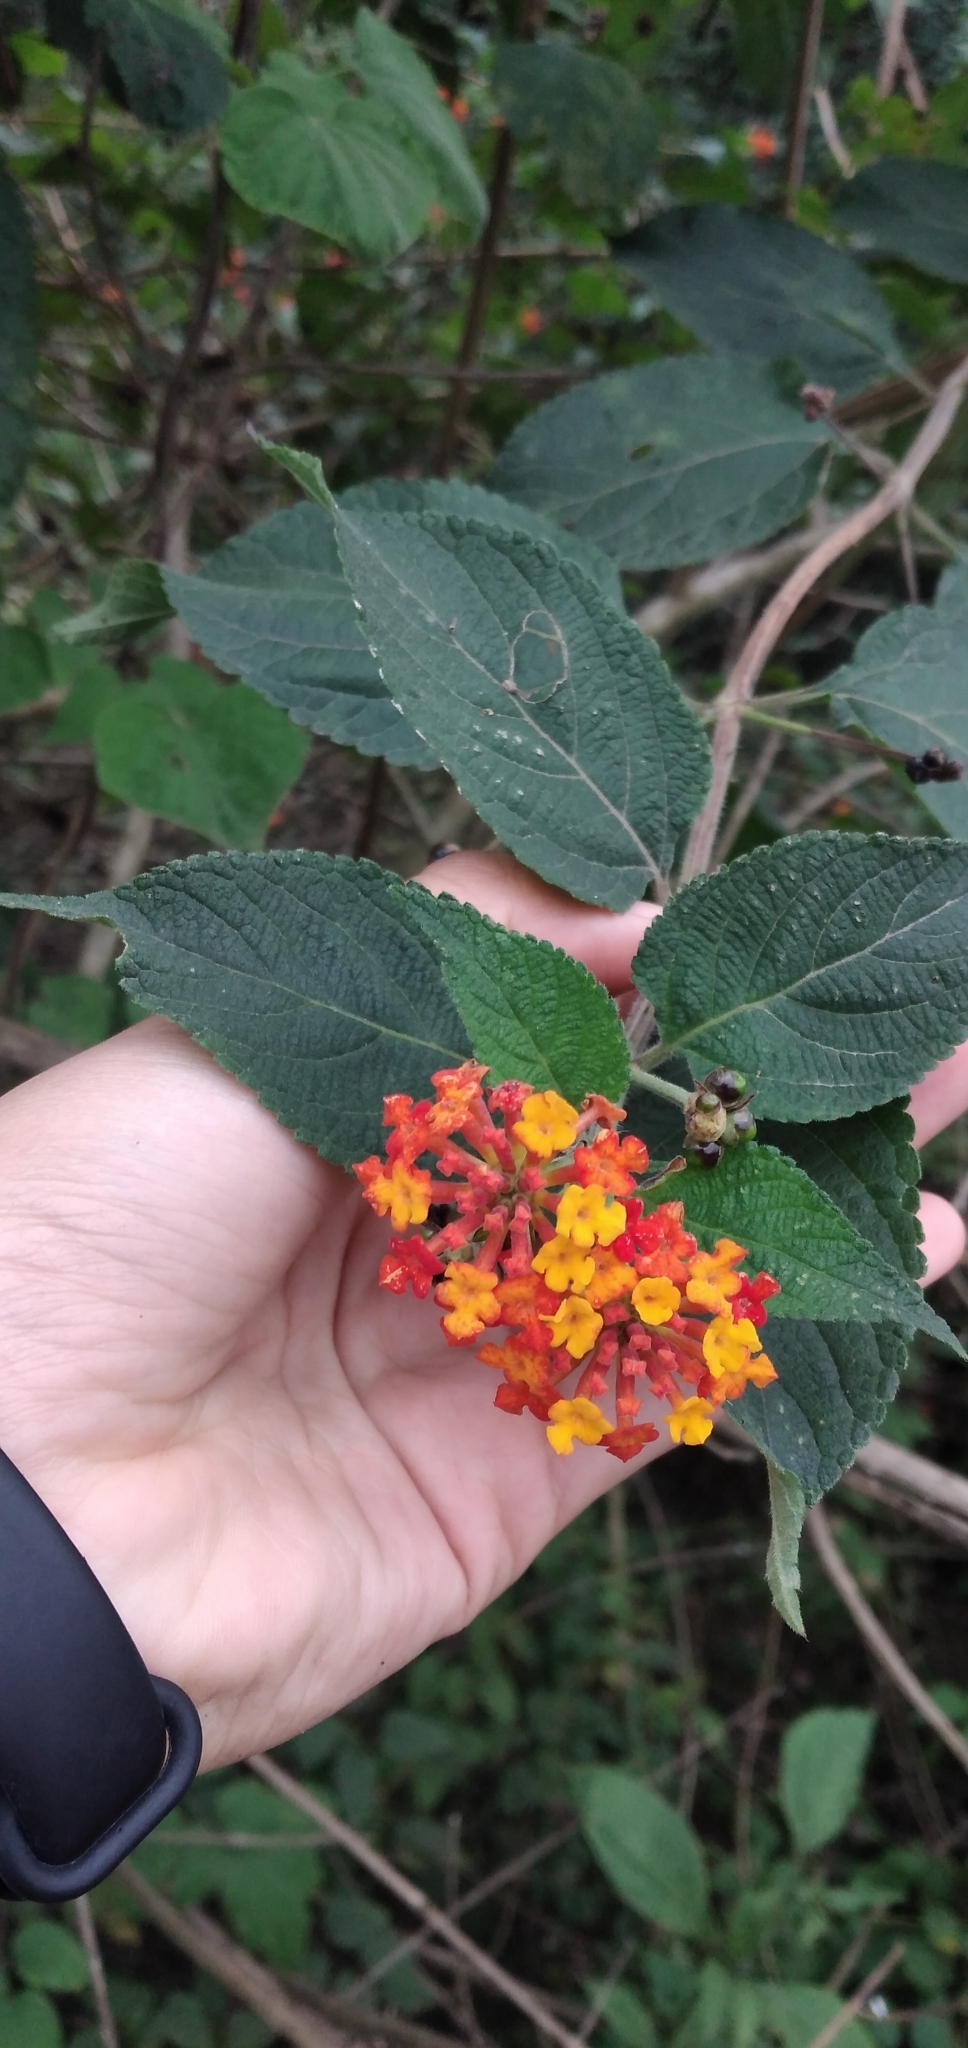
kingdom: Plantae
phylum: Tracheophyta
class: Magnoliopsida
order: Lamiales
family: Verbenaceae
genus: Lantana
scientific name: Lantana camara
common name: Lantana
